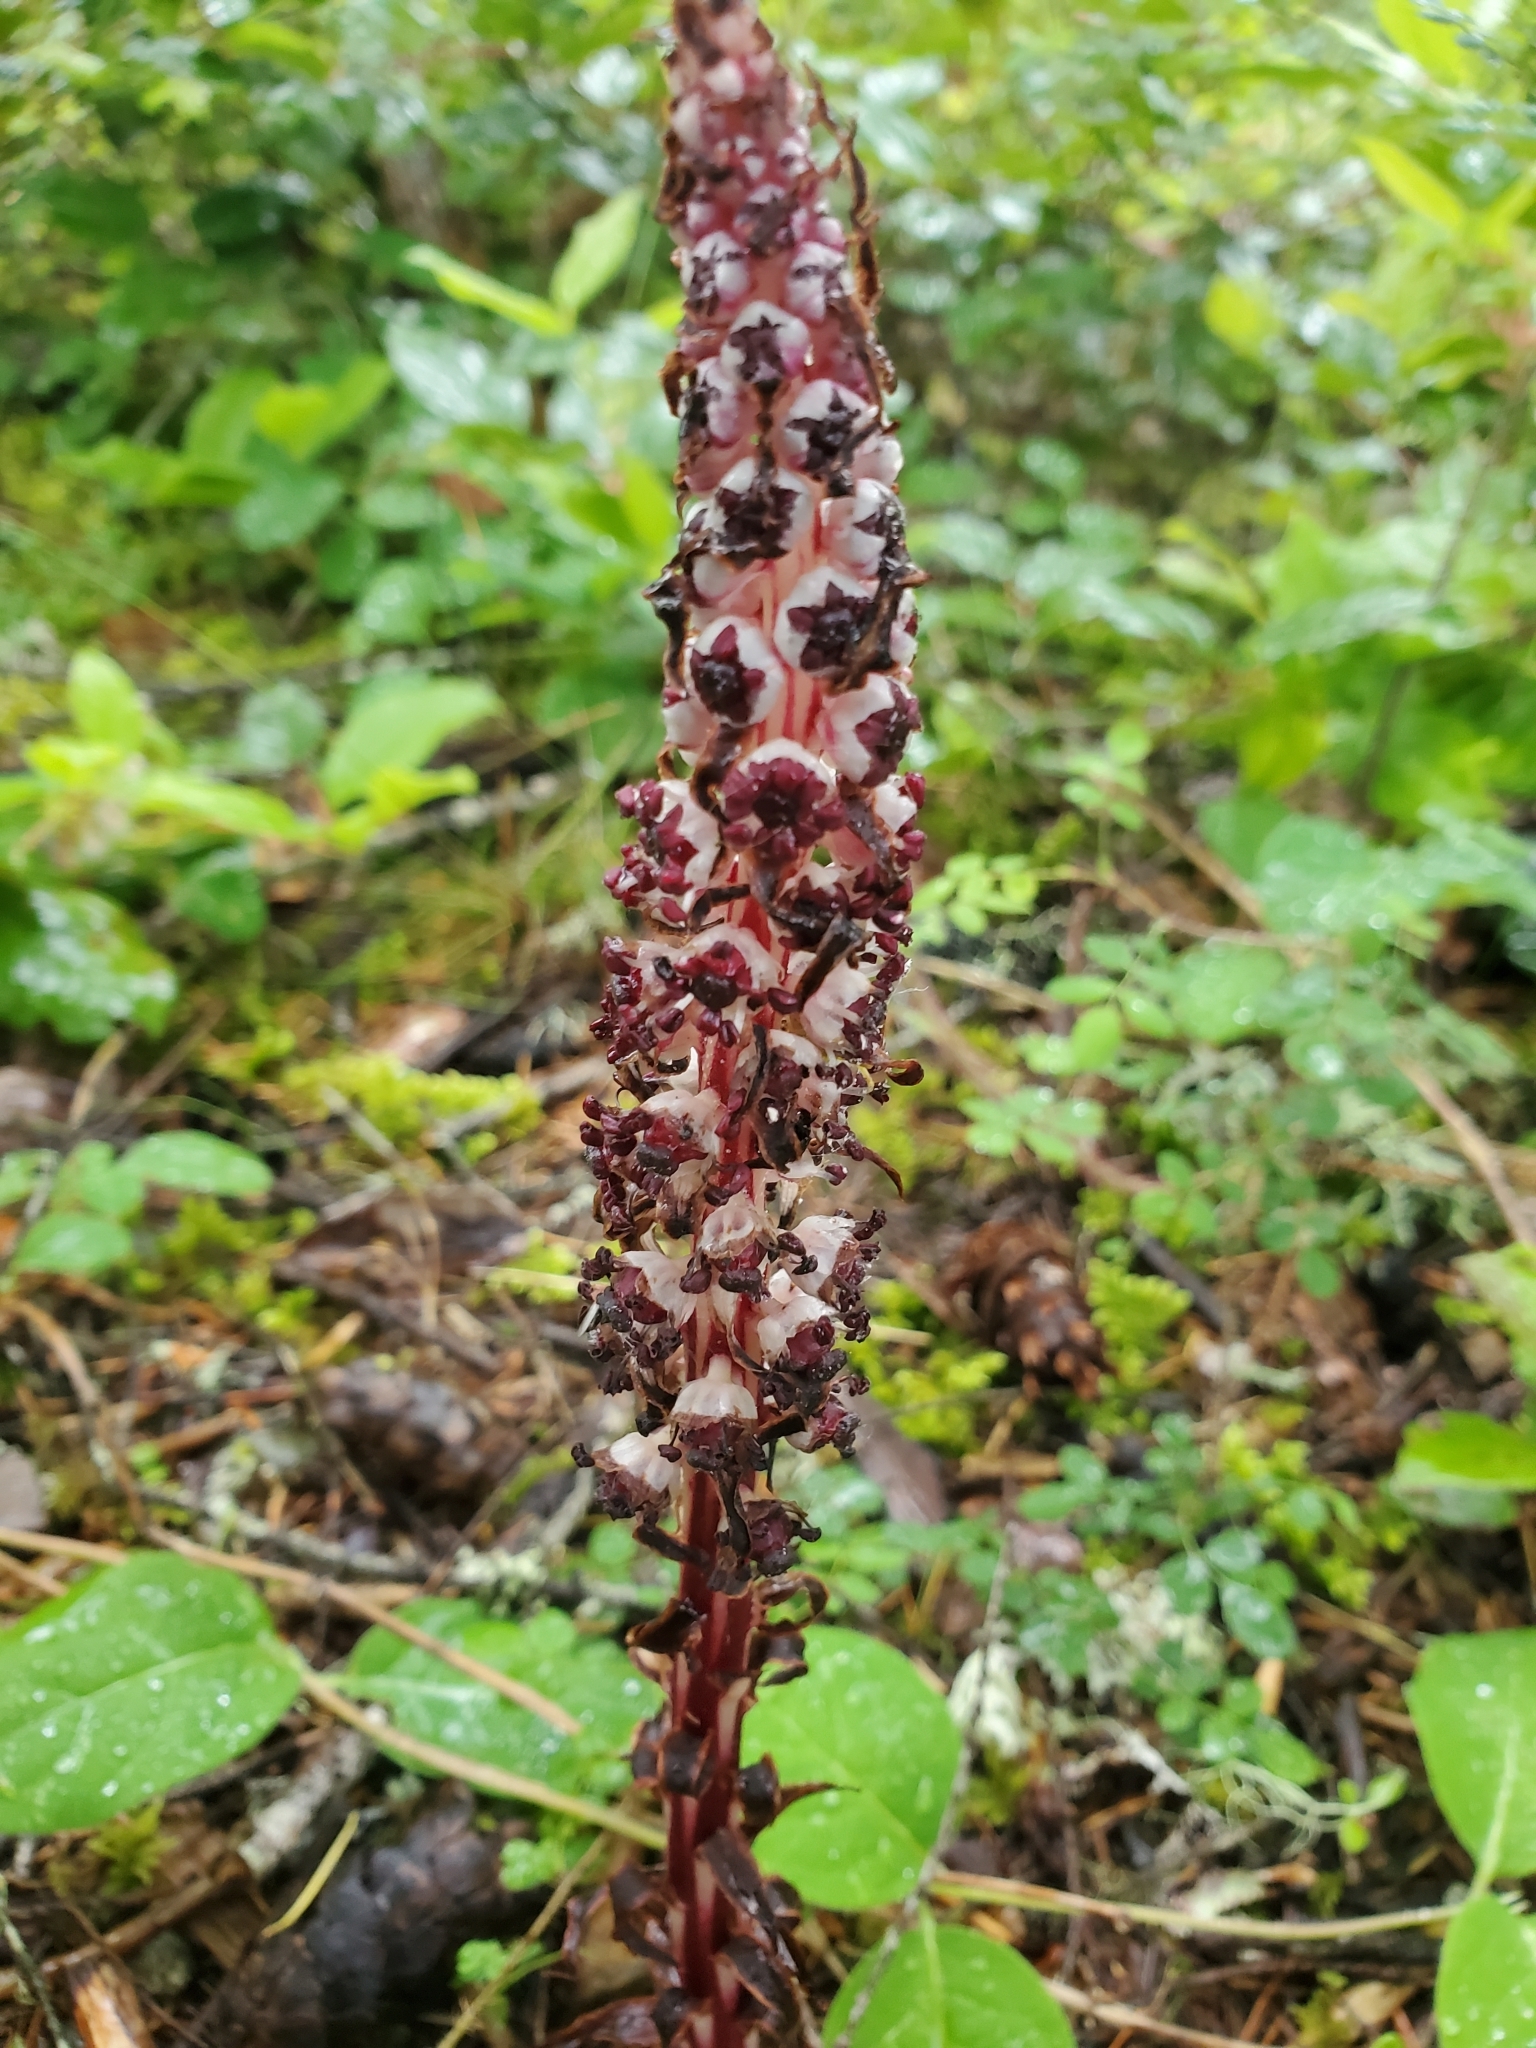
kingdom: Plantae
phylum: Tracheophyta
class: Magnoliopsida
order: Ericales
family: Ericaceae
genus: Allotropa
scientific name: Allotropa virgata
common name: Candy-striped allotropa
